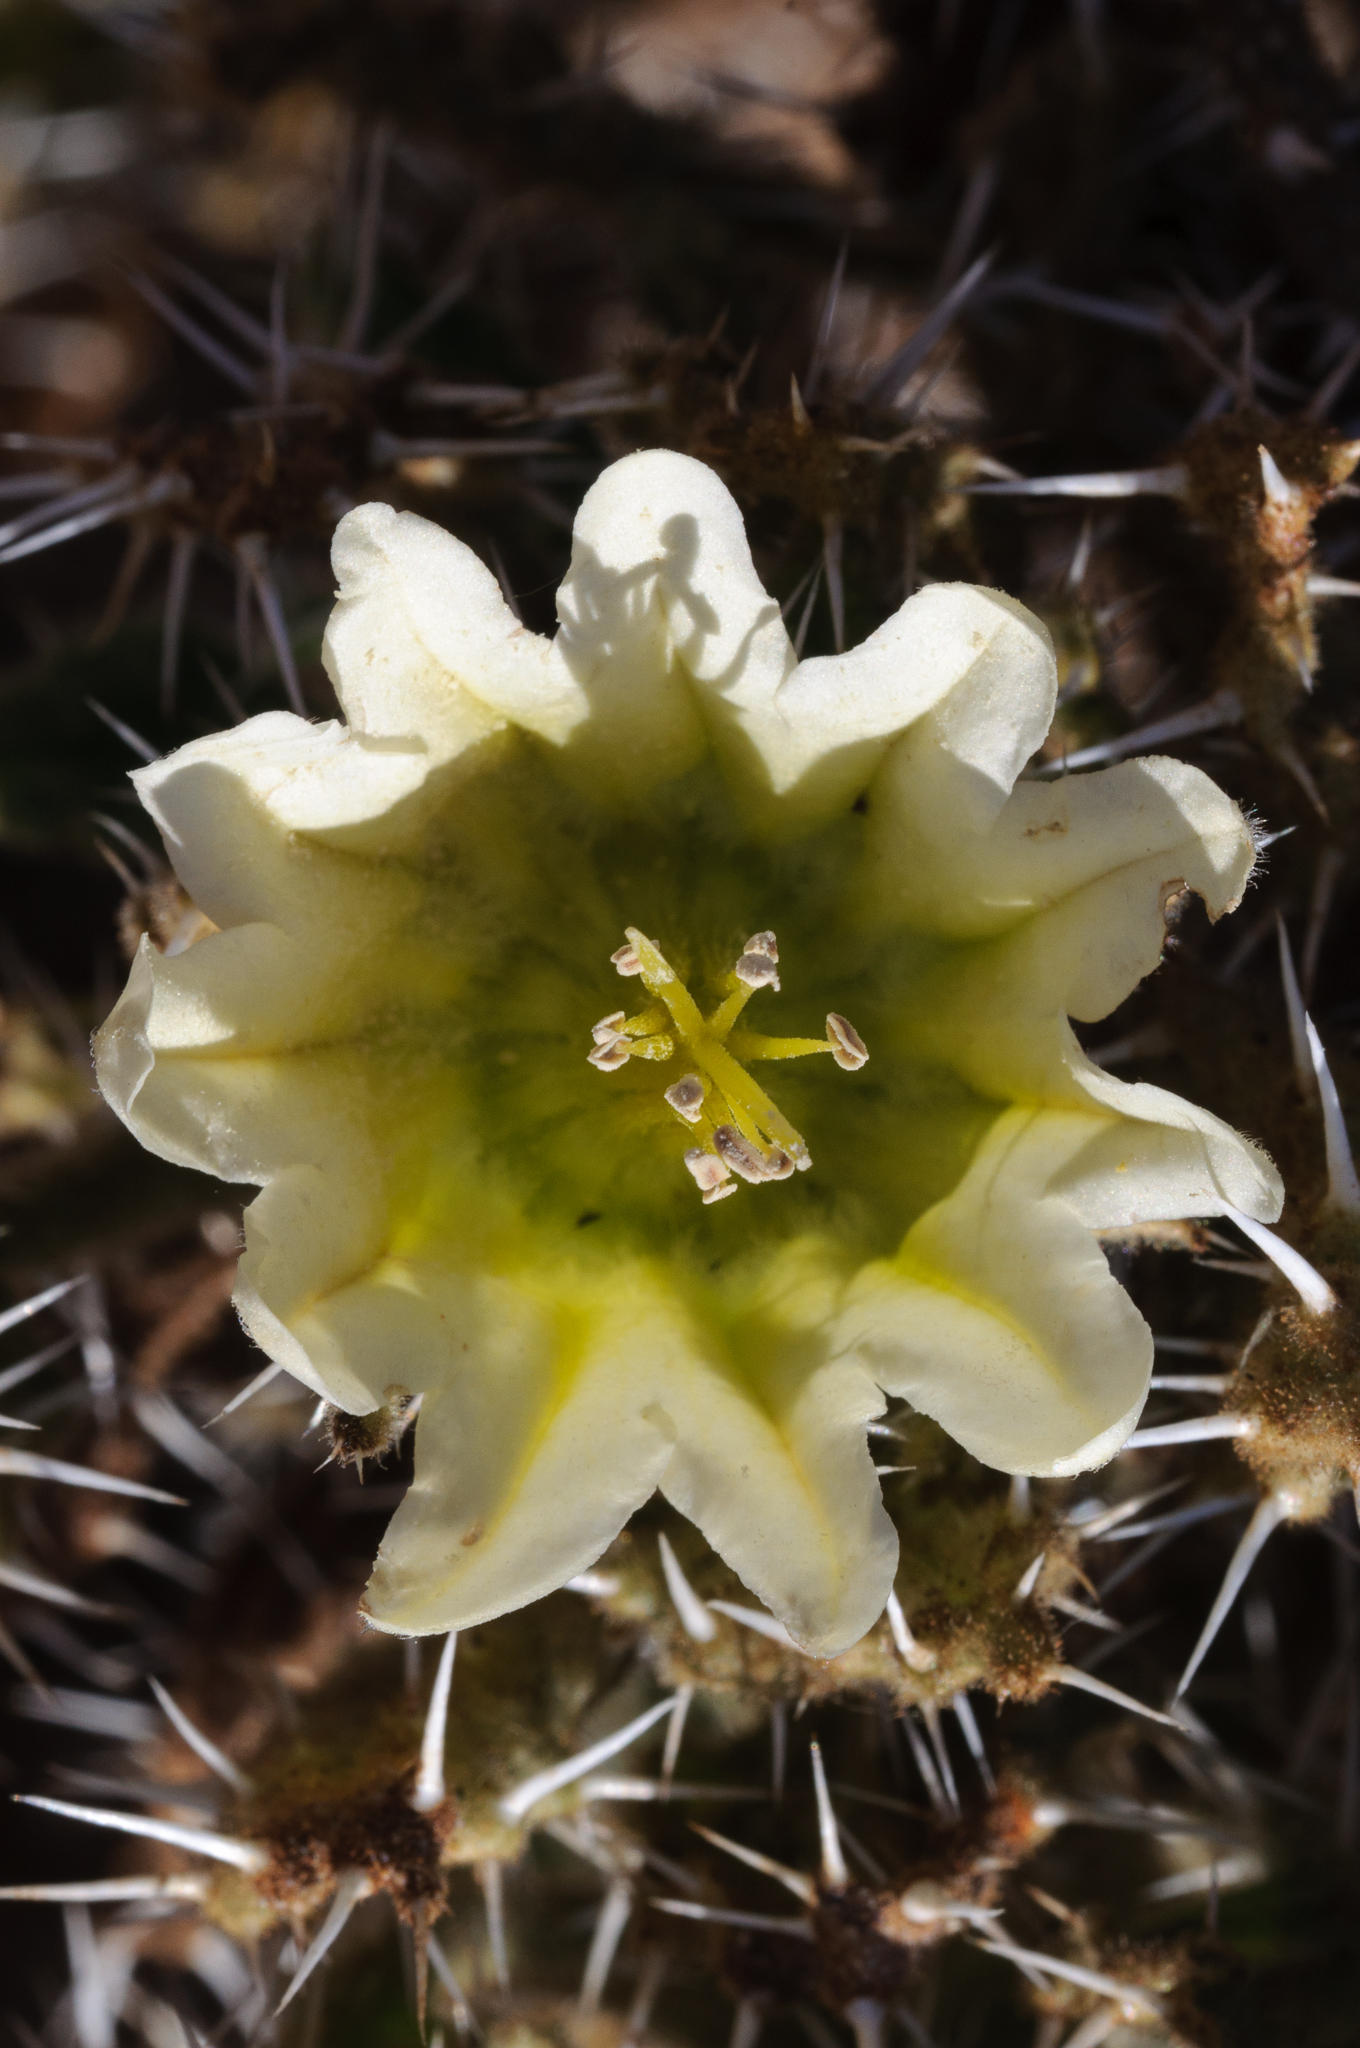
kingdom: Plantae
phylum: Tracheophyta
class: Magnoliopsida
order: Boraginales
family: Boraginaceae
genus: Codon
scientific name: Codon royenii
